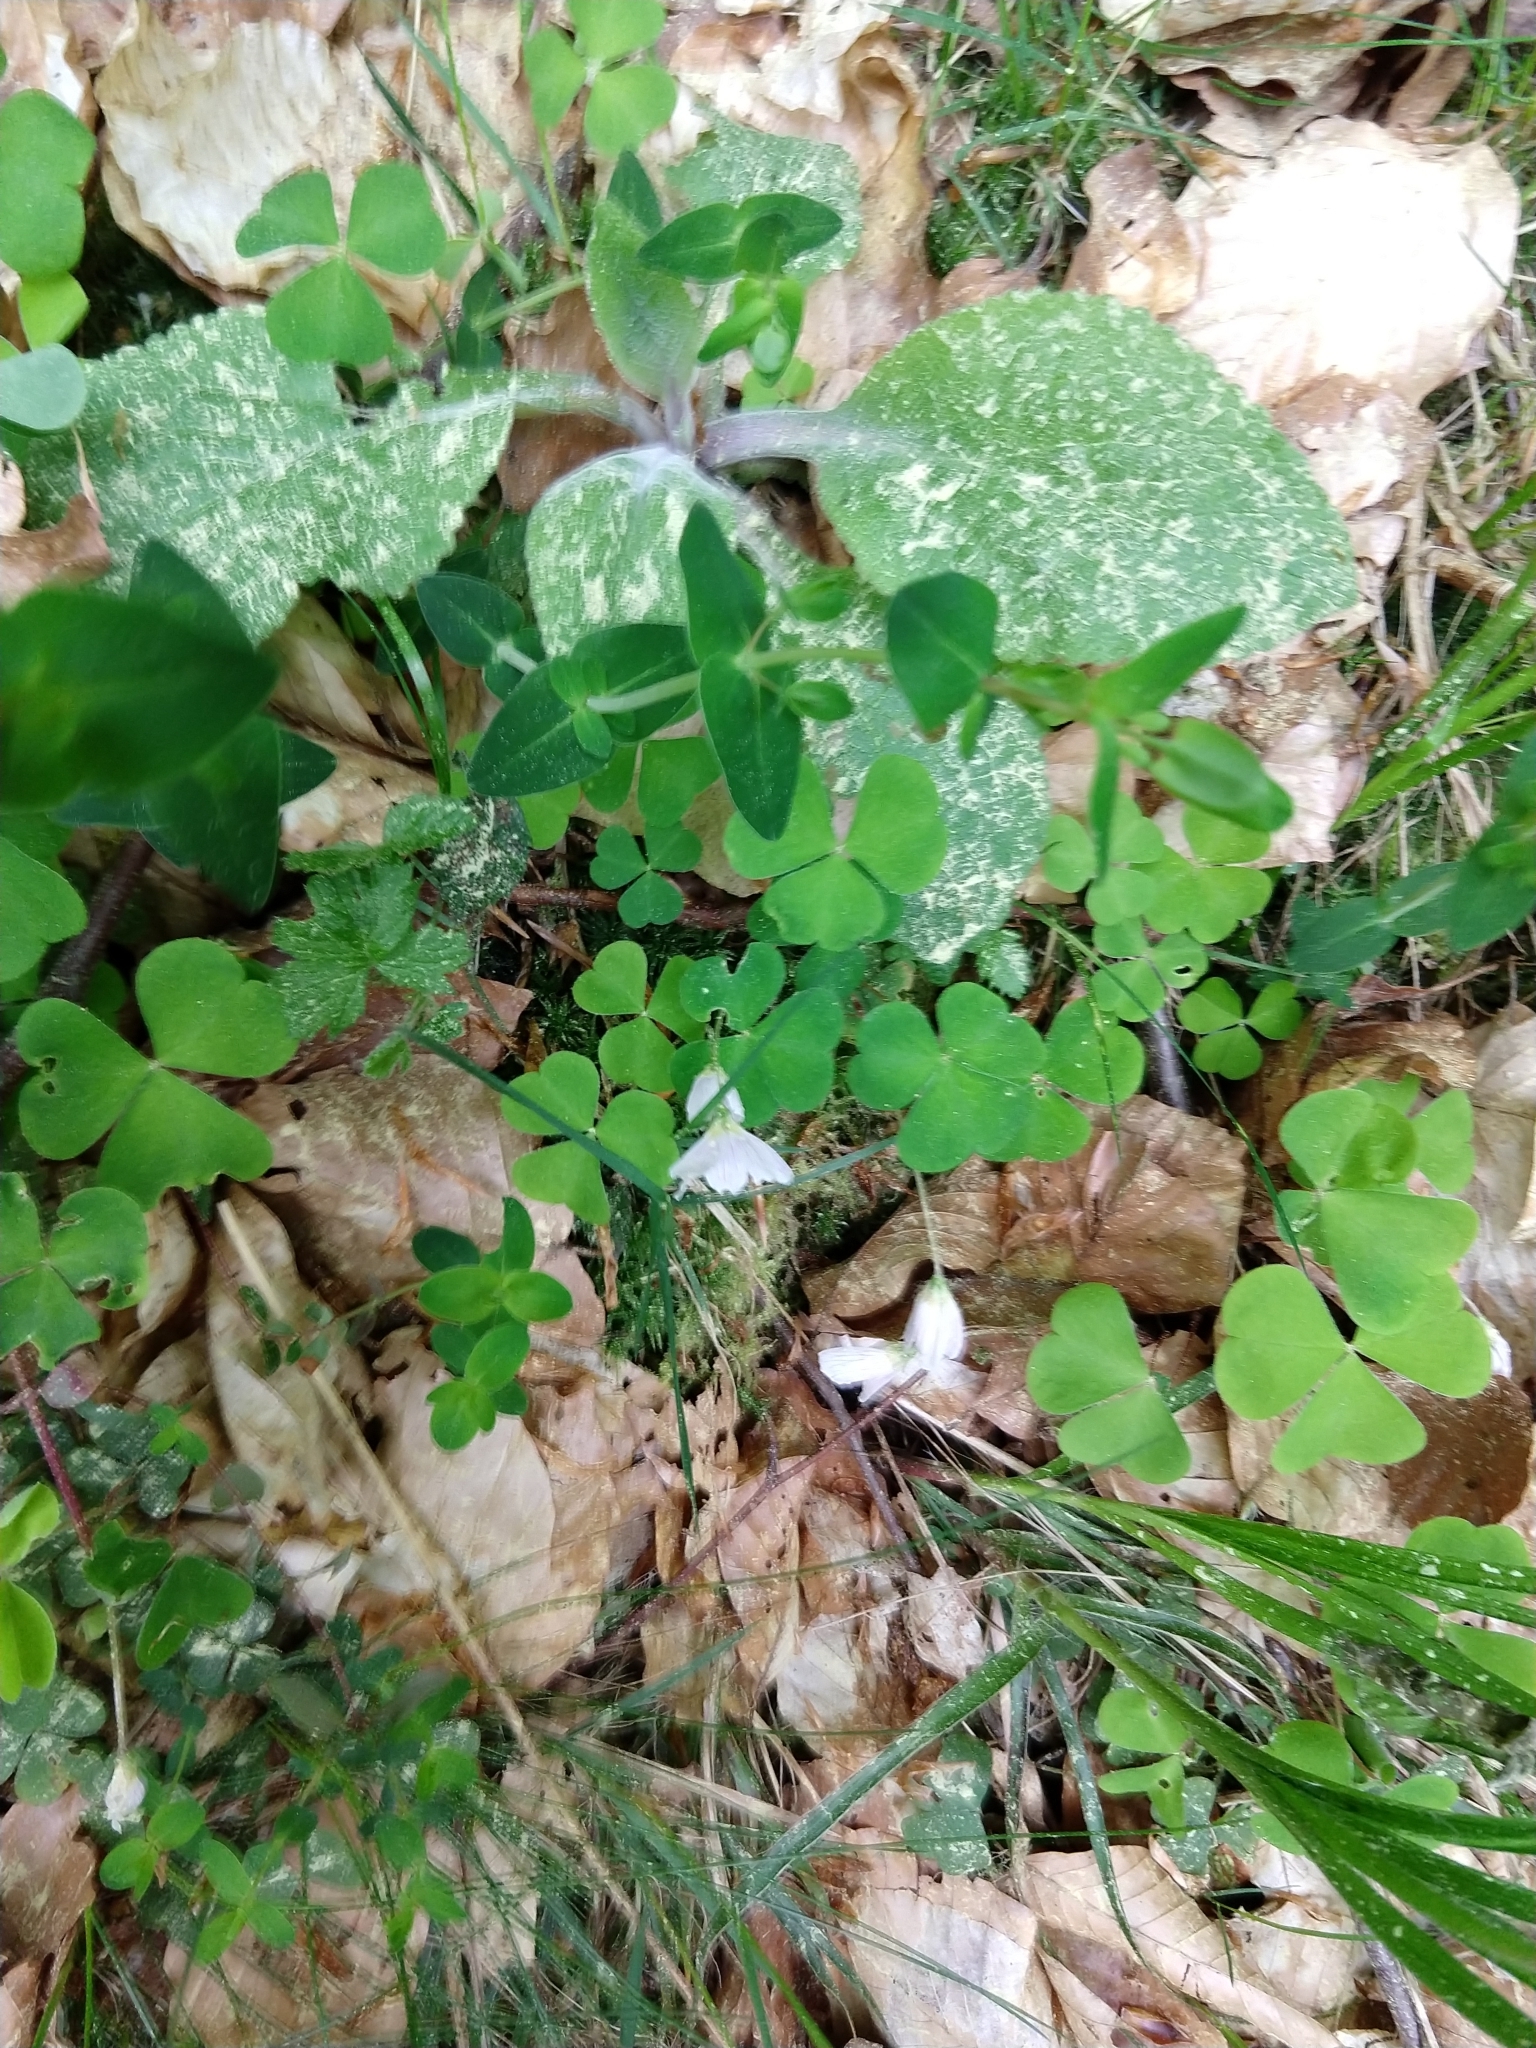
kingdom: Plantae
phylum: Tracheophyta
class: Magnoliopsida
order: Oxalidales
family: Oxalidaceae
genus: Oxalis
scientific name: Oxalis acetosella
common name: Wood-sorrel
